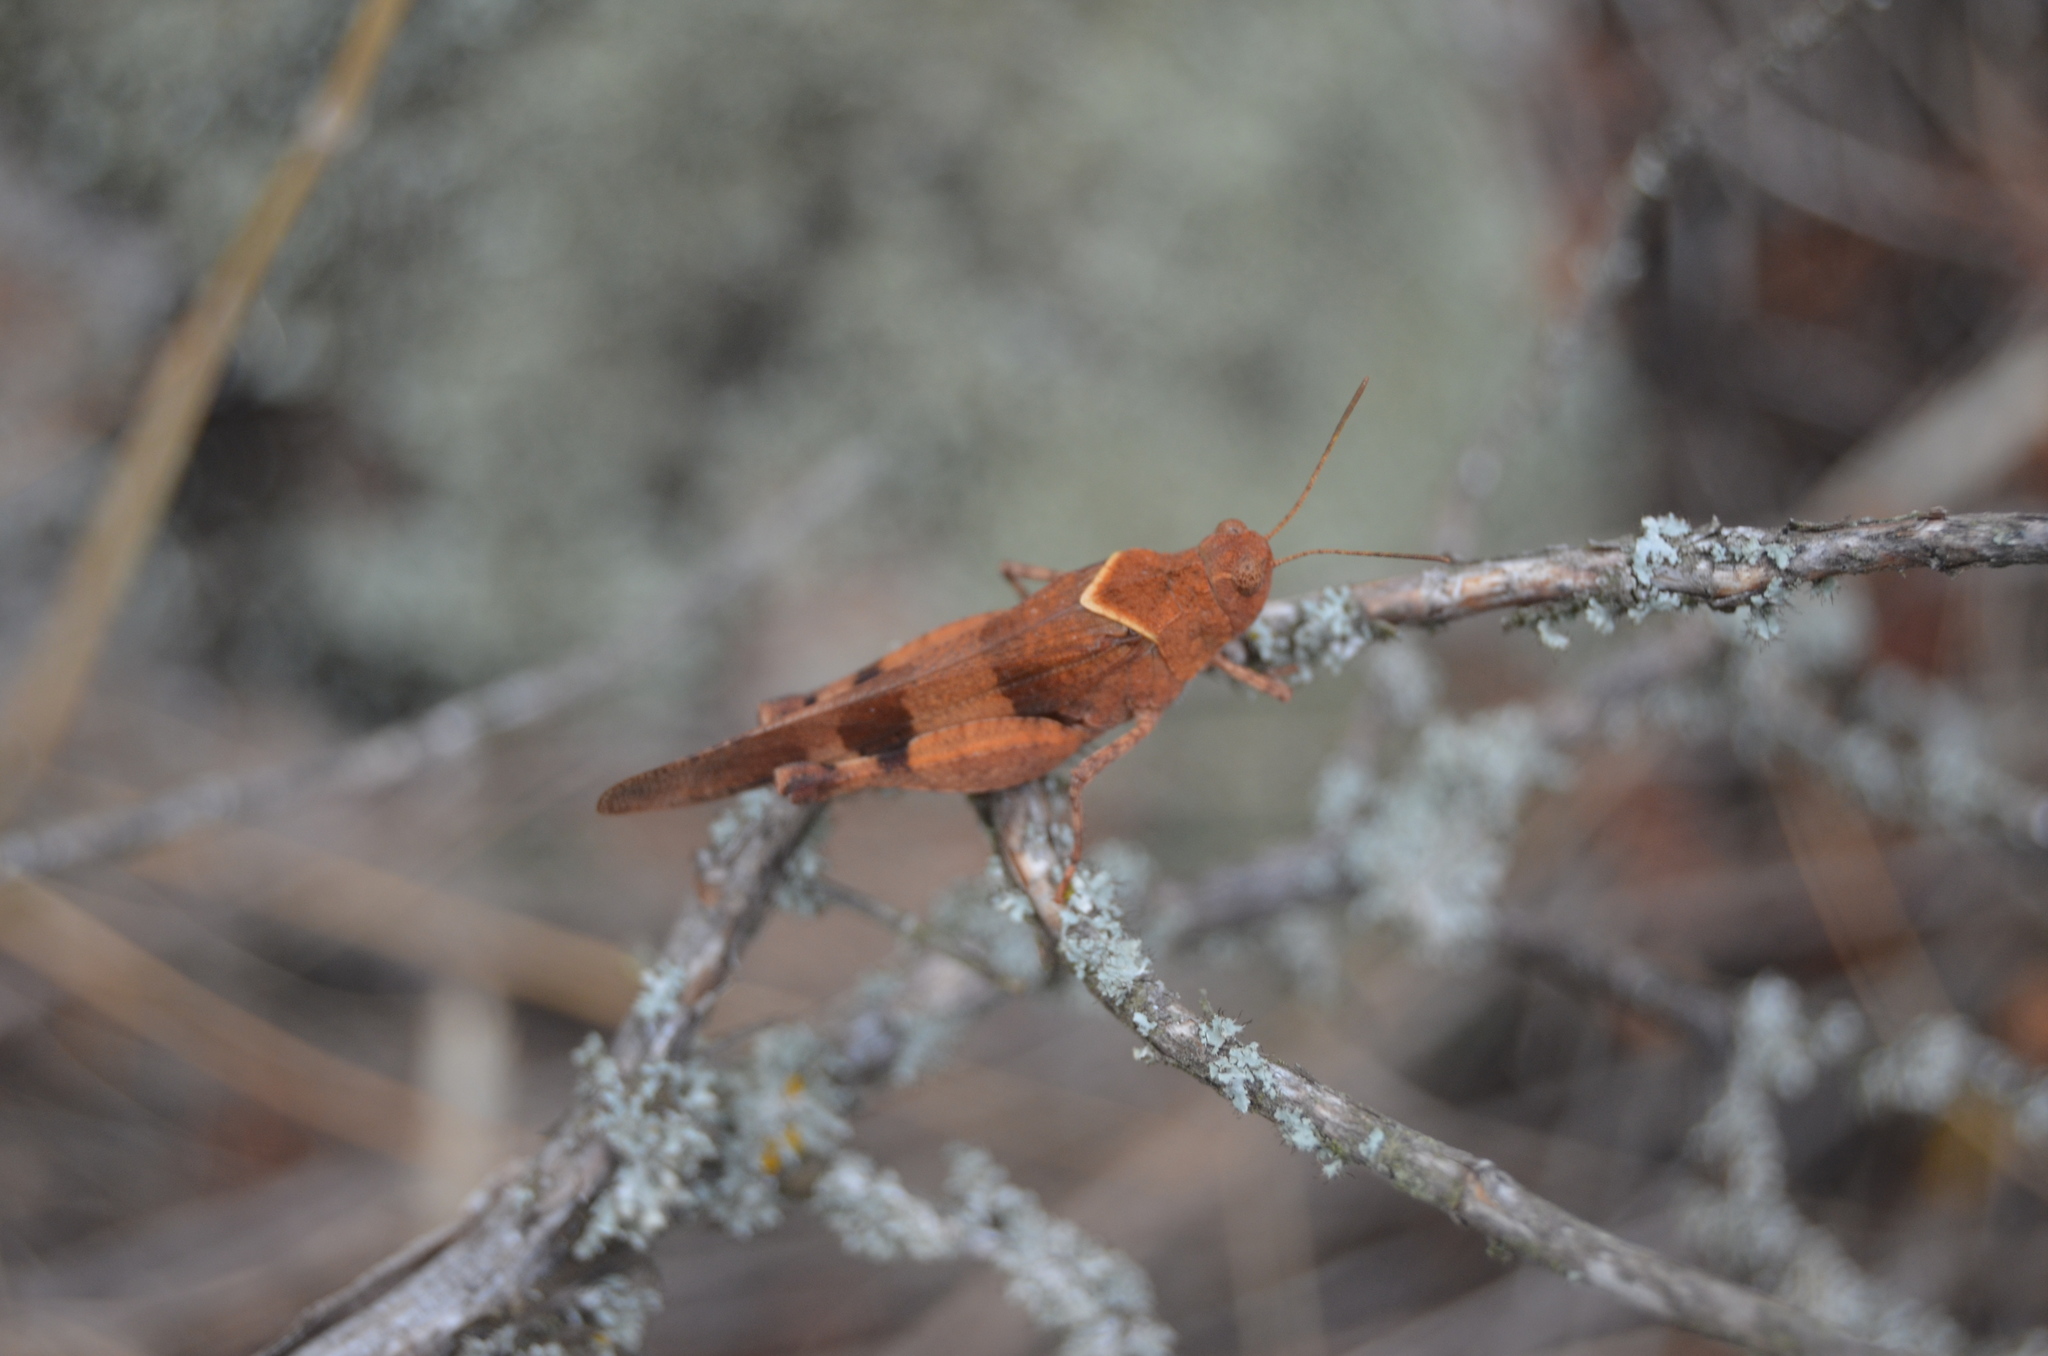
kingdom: Animalia
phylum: Arthropoda
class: Insecta
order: Orthoptera
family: Acrididae
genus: Oedipoda
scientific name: Oedipoda caerulescens
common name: Blue-winged grasshopper
